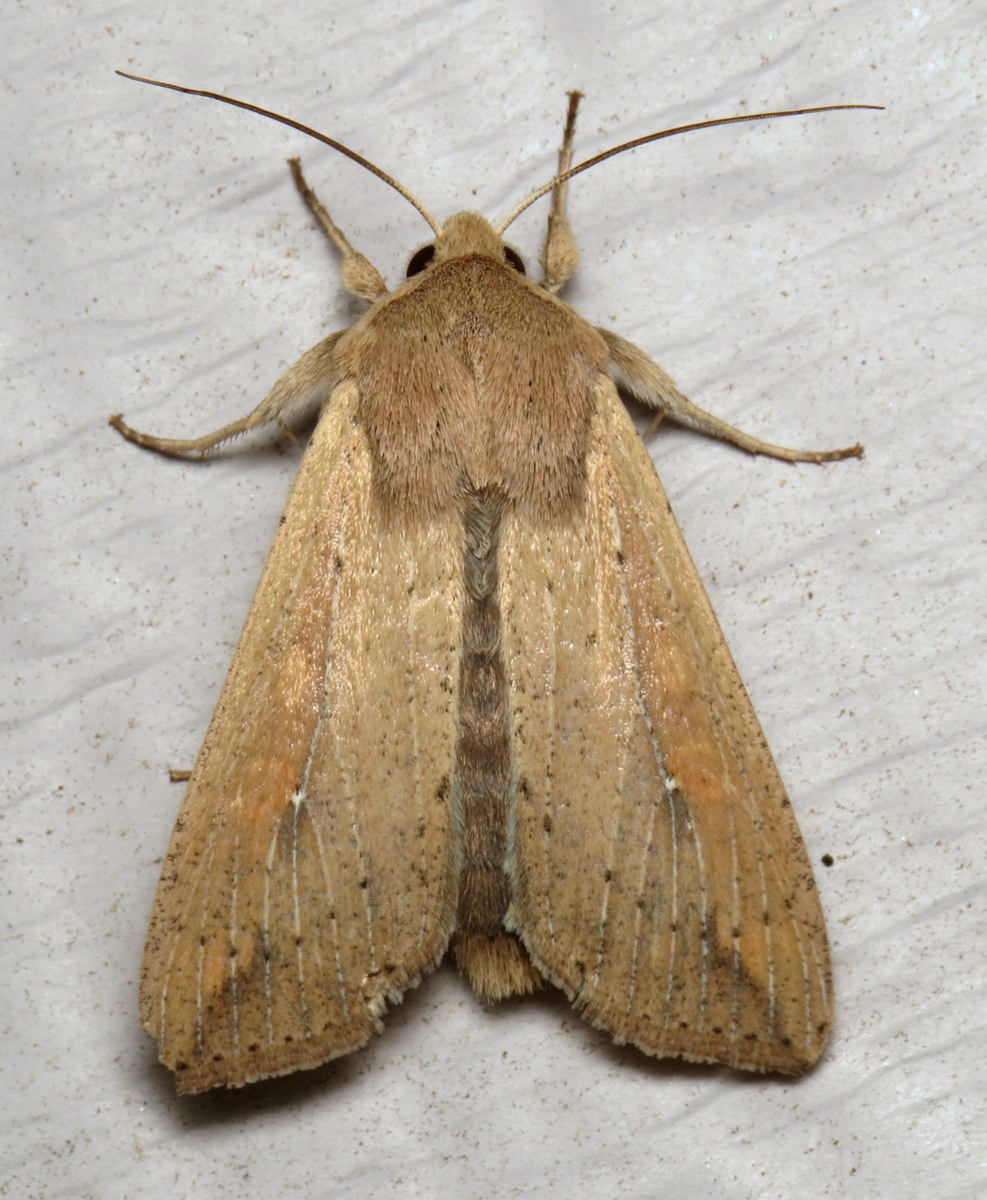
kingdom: Animalia
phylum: Arthropoda
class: Insecta
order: Lepidoptera
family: Noctuidae
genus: Mythimna
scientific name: Mythimna unipuncta
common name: White-speck
